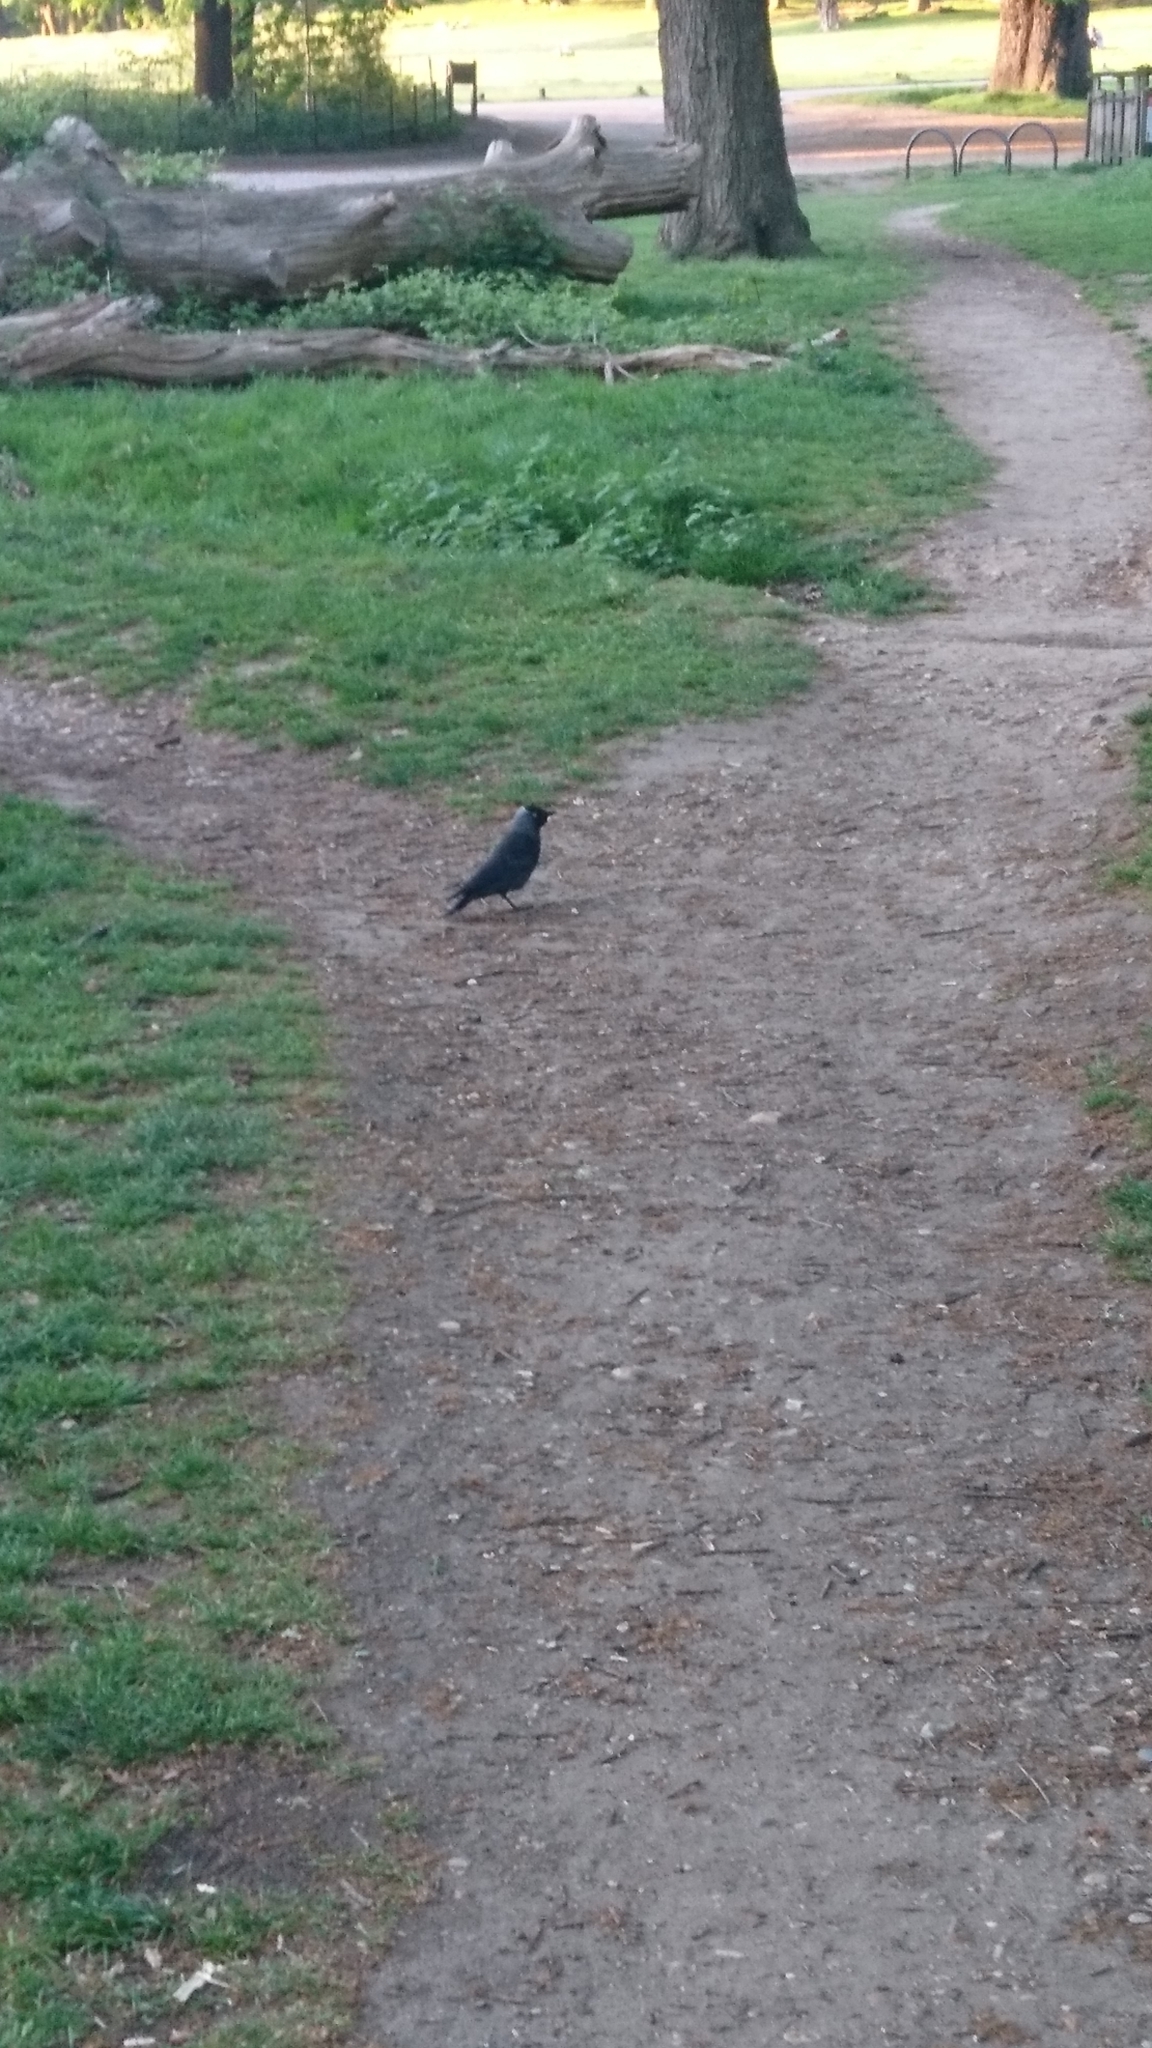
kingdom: Animalia
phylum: Chordata
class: Aves
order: Passeriformes
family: Corvidae
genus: Coloeus
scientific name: Coloeus monedula
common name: Western jackdaw
